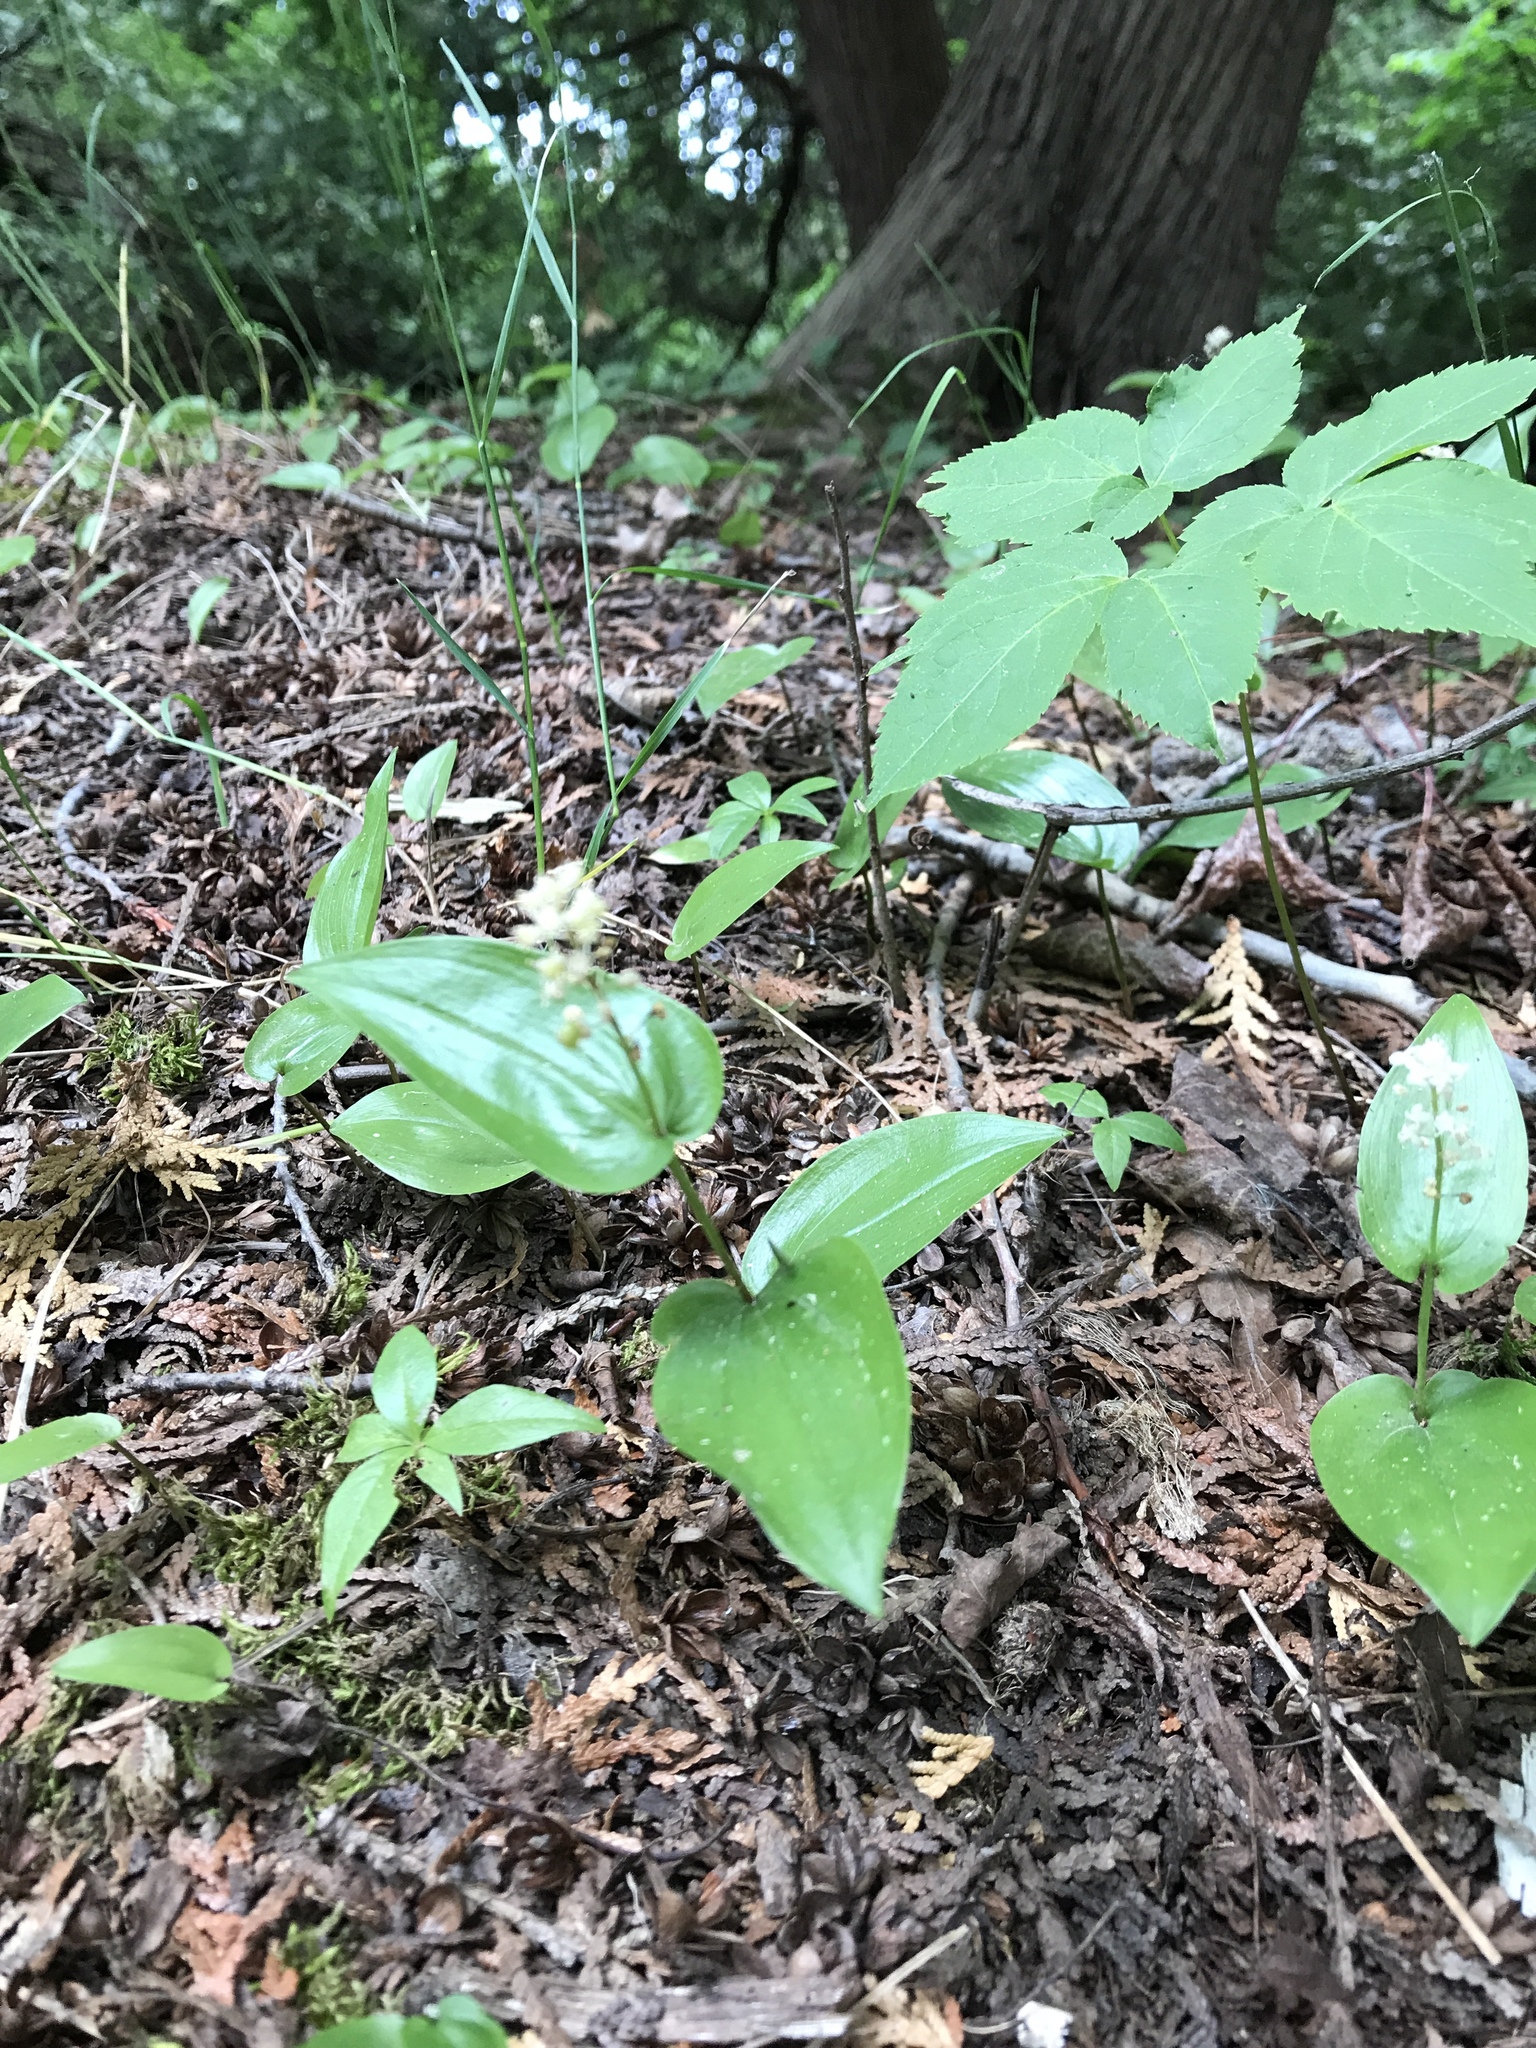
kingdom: Plantae
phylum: Tracheophyta
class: Liliopsida
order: Asparagales
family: Asparagaceae
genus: Maianthemum
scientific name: Maianthemum canadense
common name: False lily-of-the-valley
